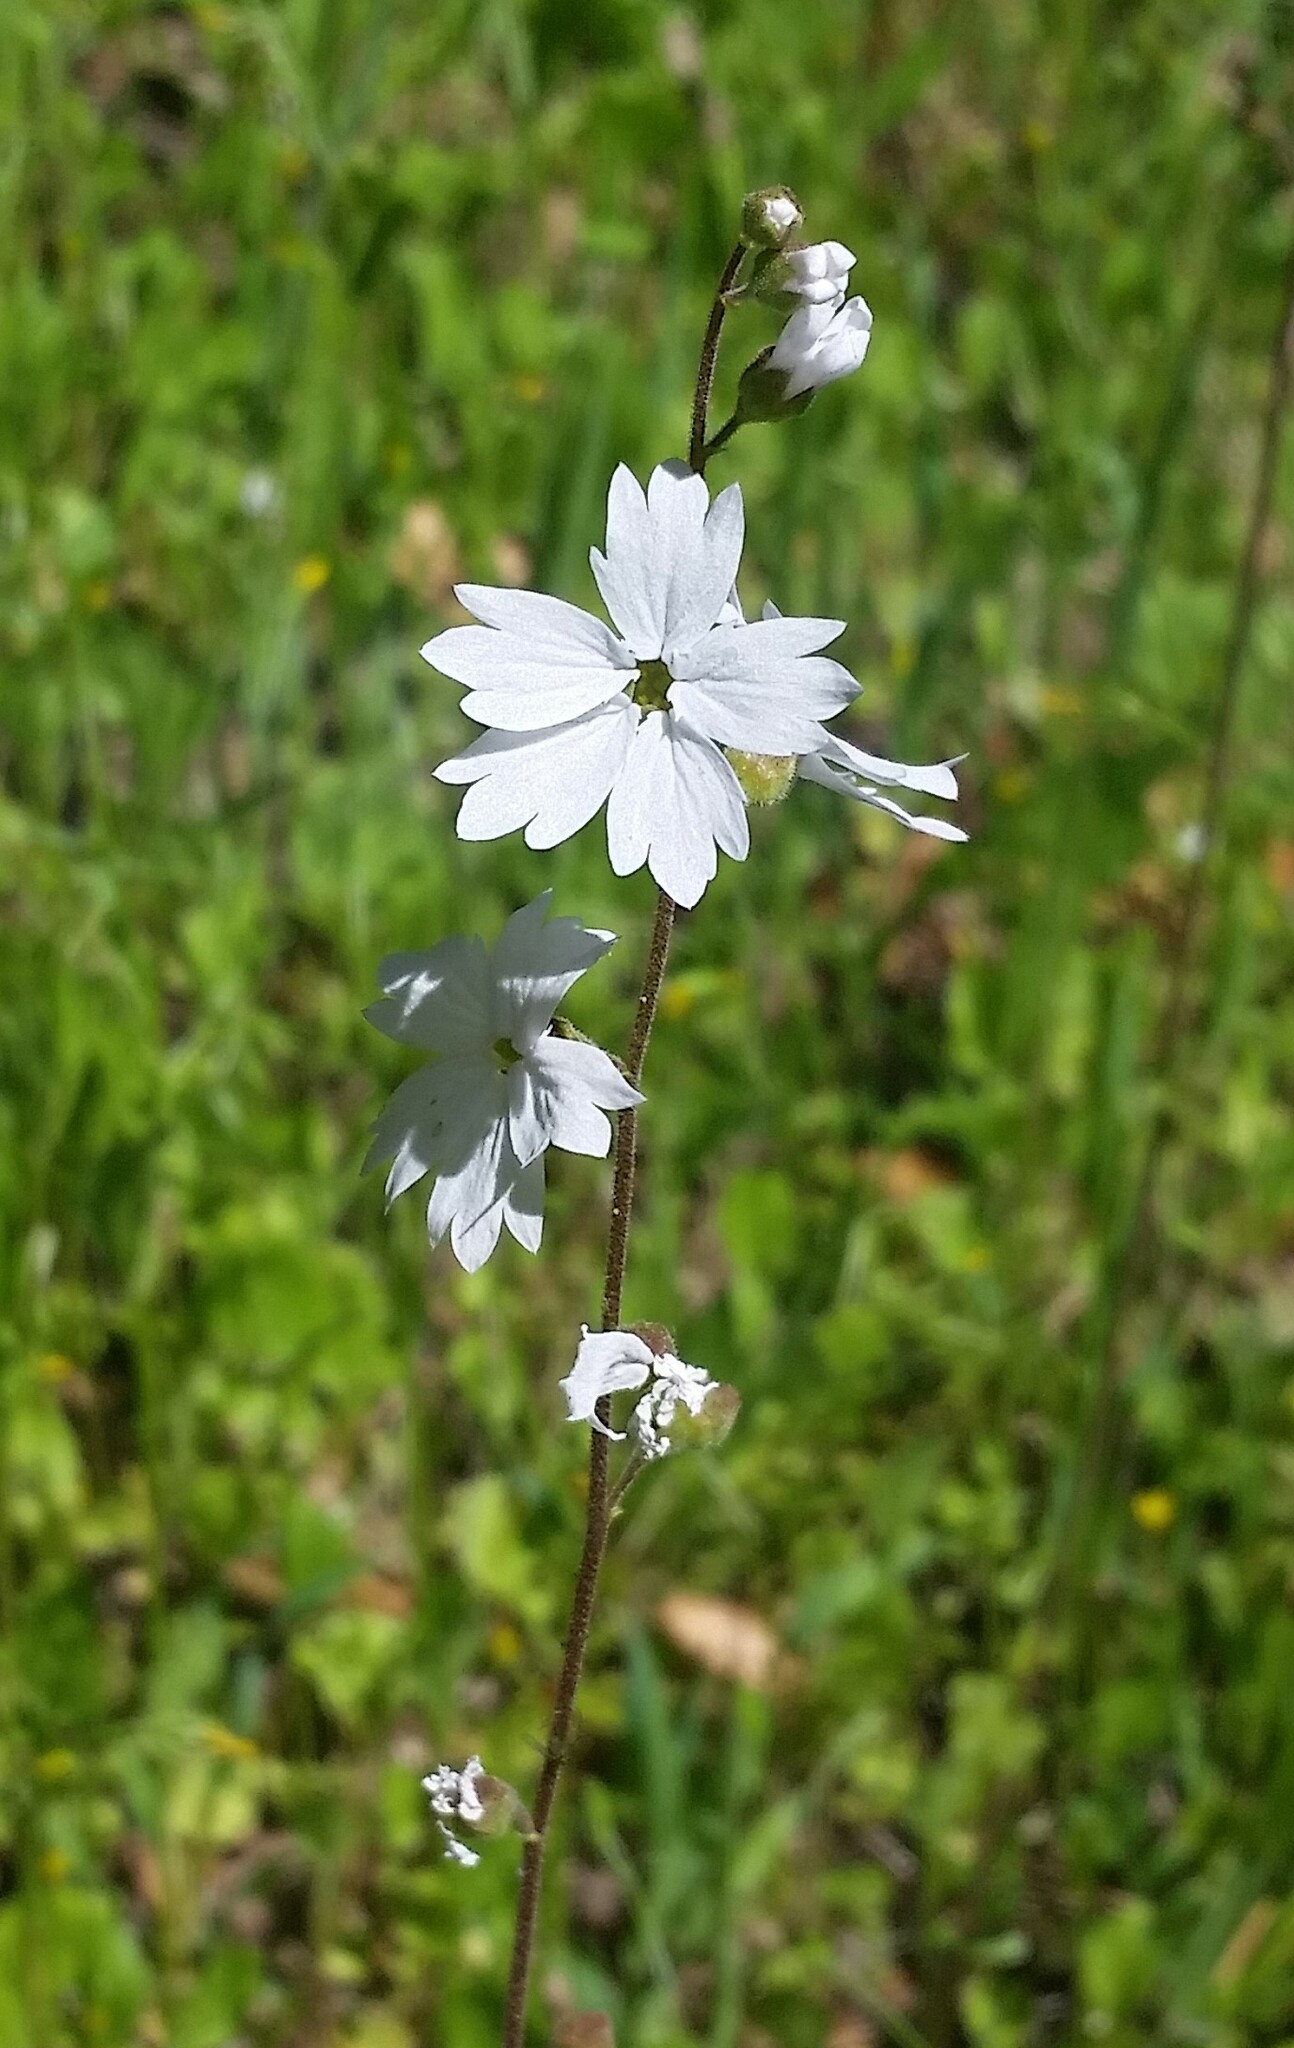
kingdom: Plantae
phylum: Tracheophyta
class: Magnoliopsida
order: Saxifragales
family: Saxifragaceae
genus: Lithophragma
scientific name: Lithophragma affine
